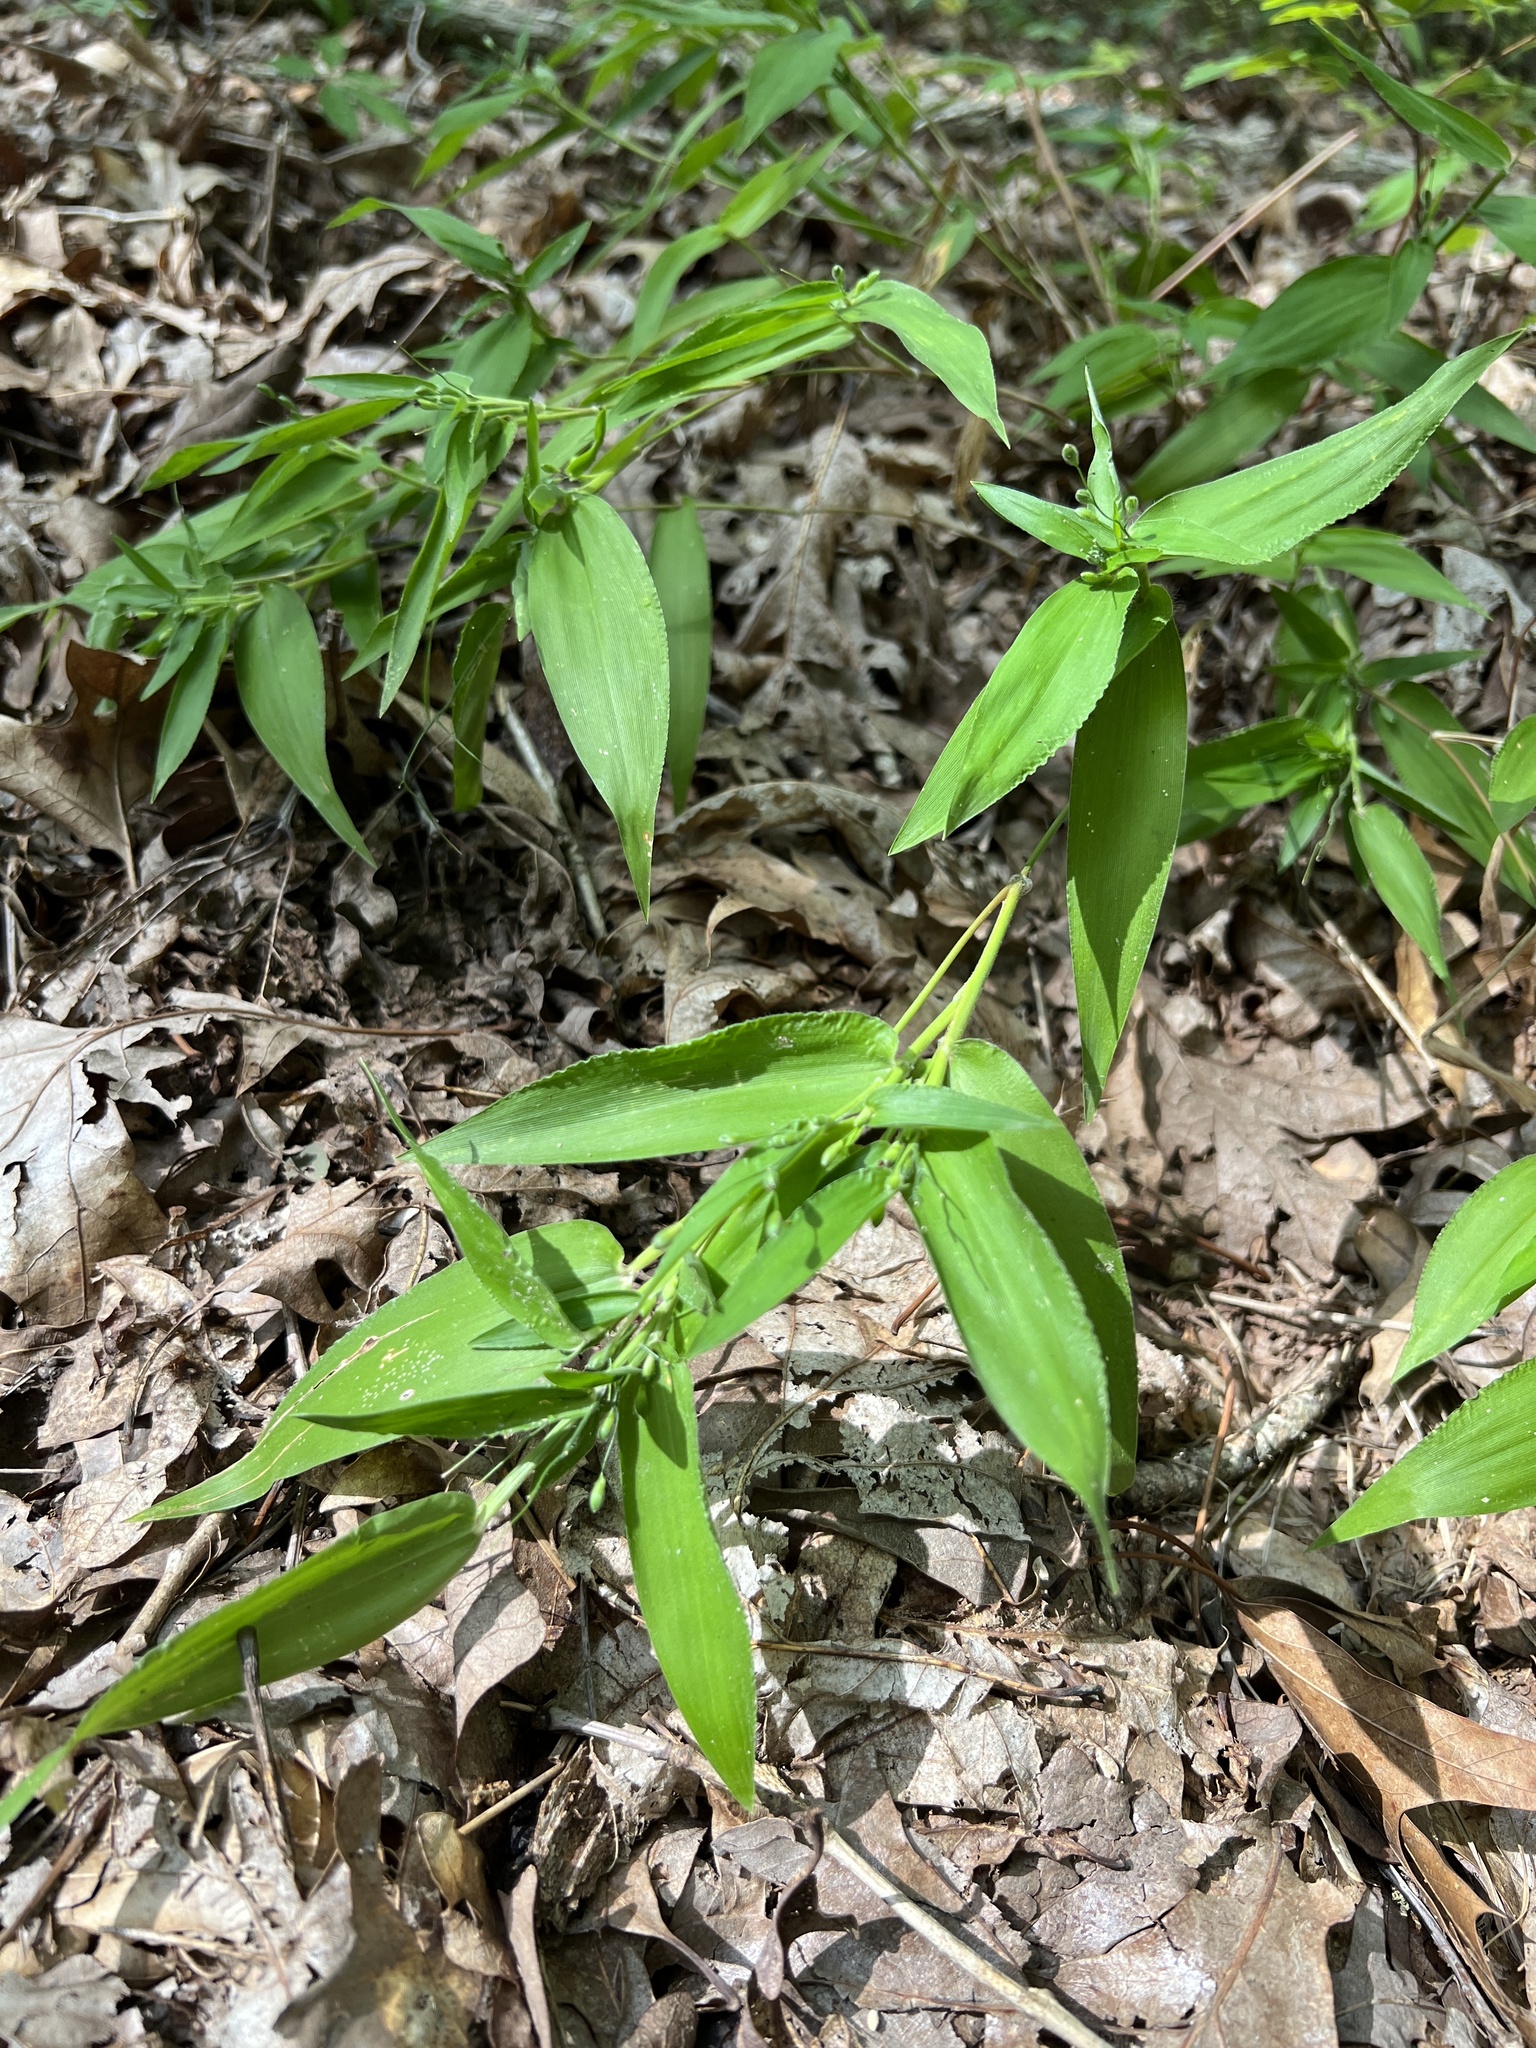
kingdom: Plantae
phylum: Tracheophyta
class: Liliopsida
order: Poales
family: Poaceae
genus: Dichanthelium
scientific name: Dichanthelium boscii
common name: Bosc's panic grass
